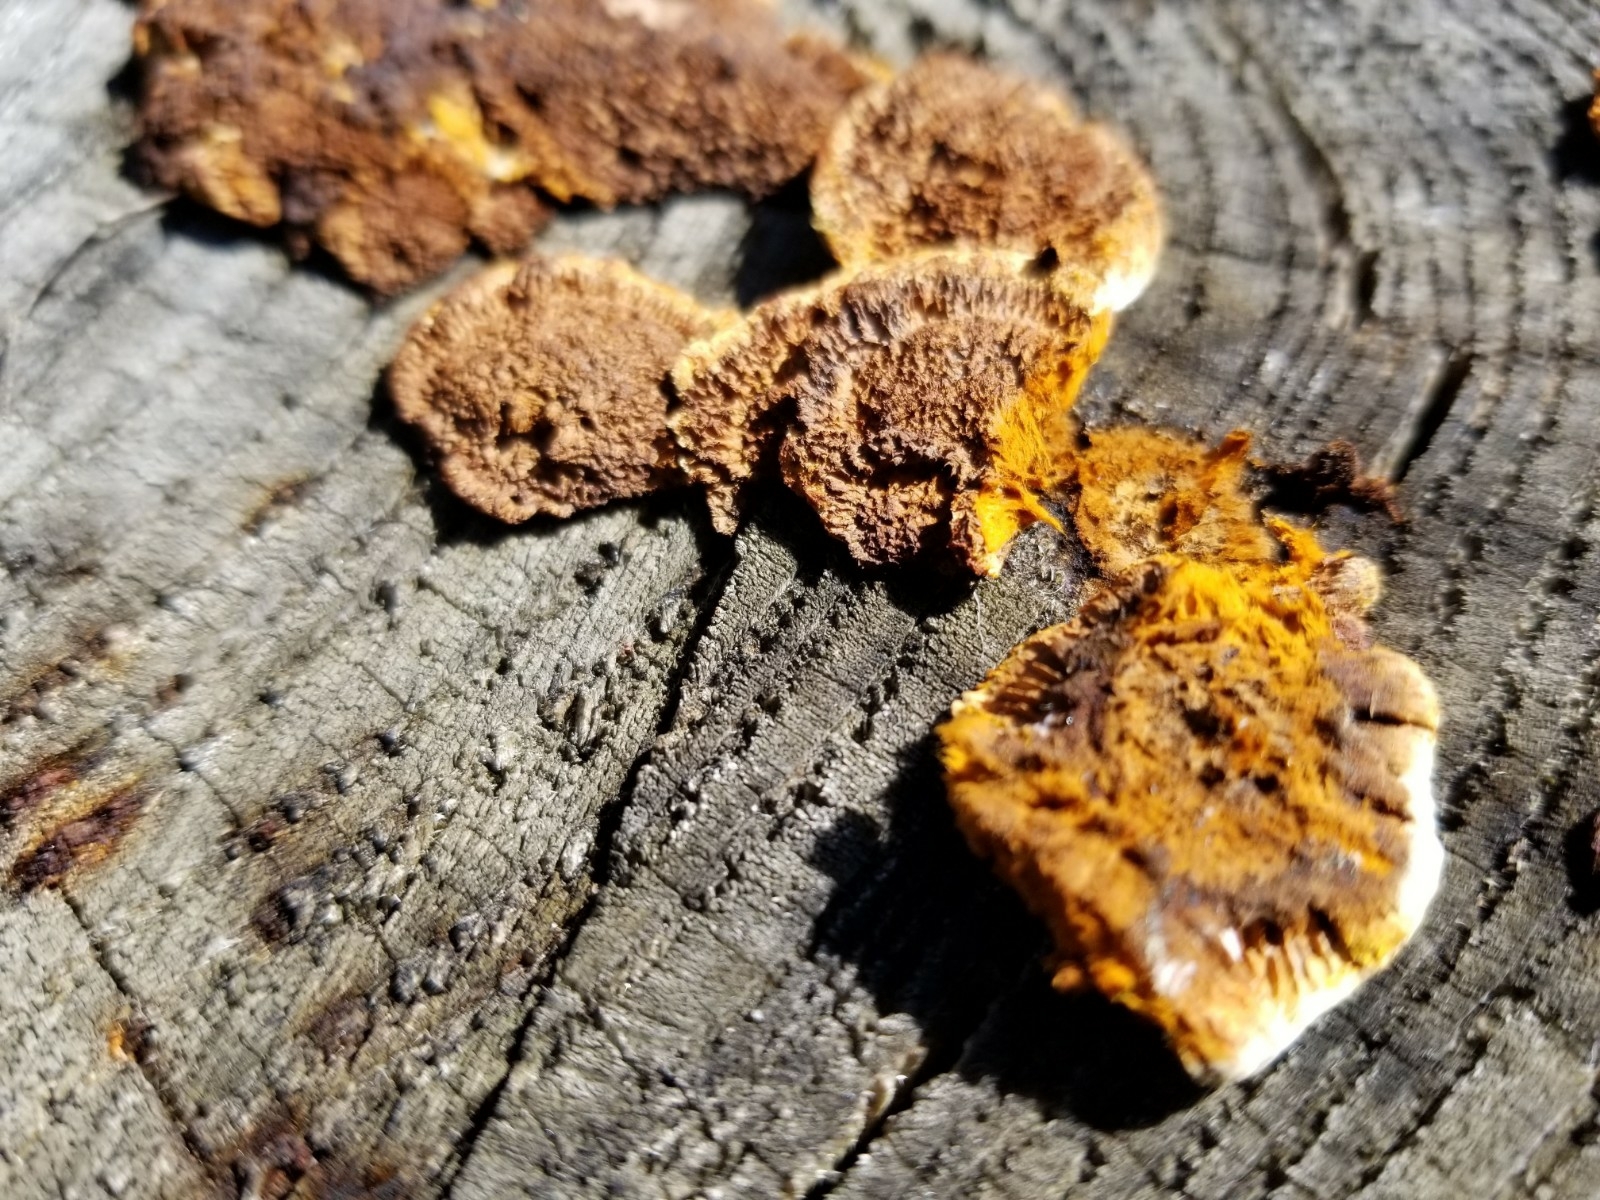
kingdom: Fungi
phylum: Basidiomycota
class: Agaricomycetes
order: Gloeophyllales
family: Gloeophyllaceae
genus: Gloeophyllum
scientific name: Gloeophyllum sepiarium
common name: Conifer mazegill
